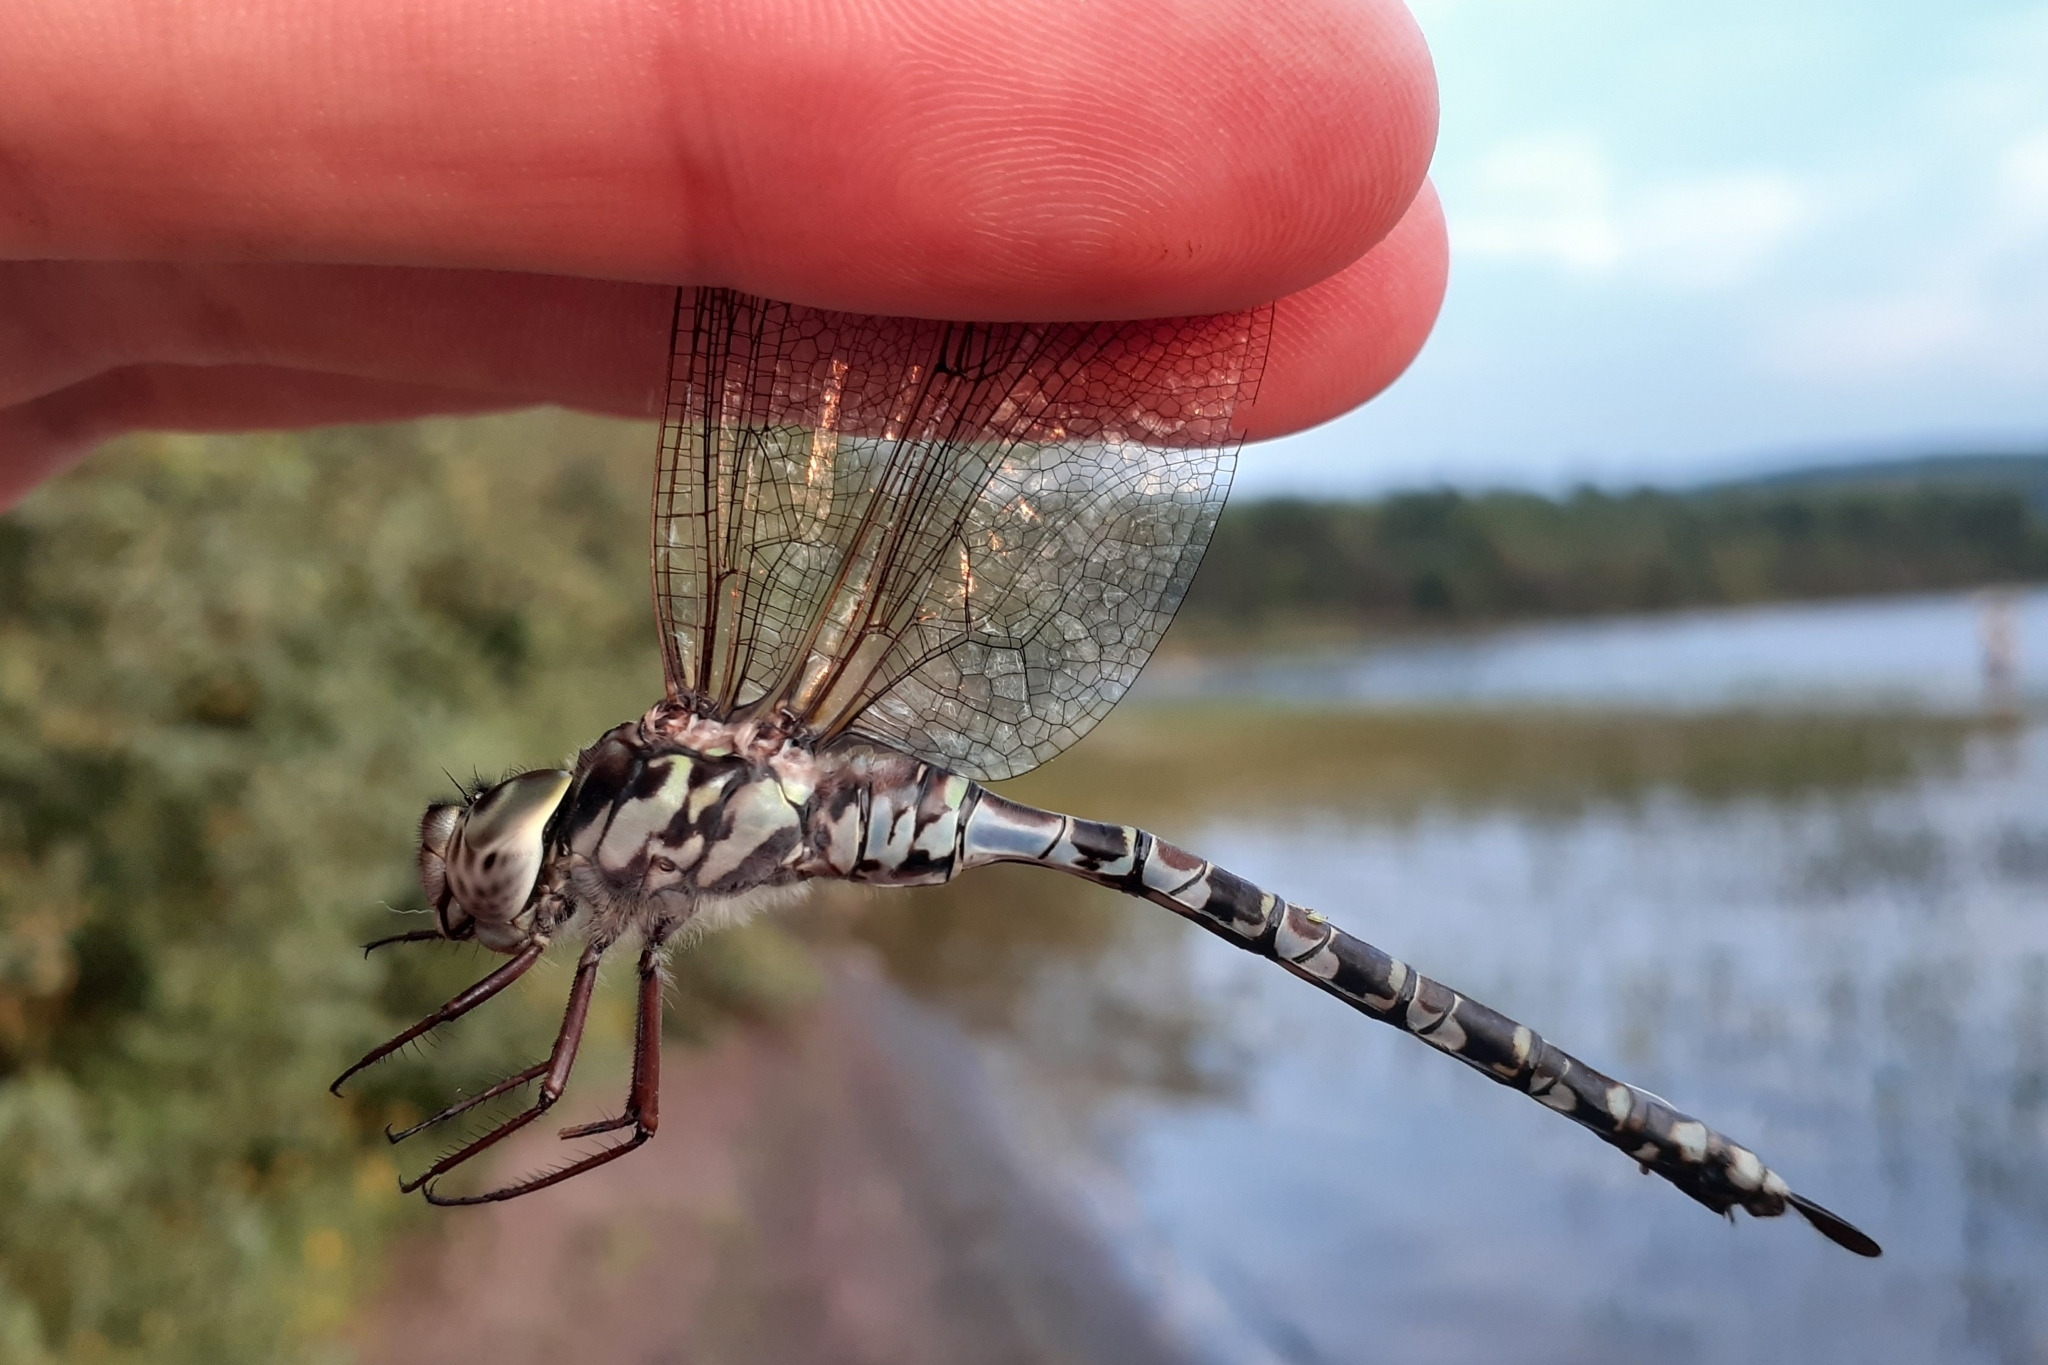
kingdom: Animalia
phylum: Arthropoda
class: Insecta
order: Odonata
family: Aeshnidae
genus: Aeshna
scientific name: Aeshna clepsydra
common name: Mottled darner
